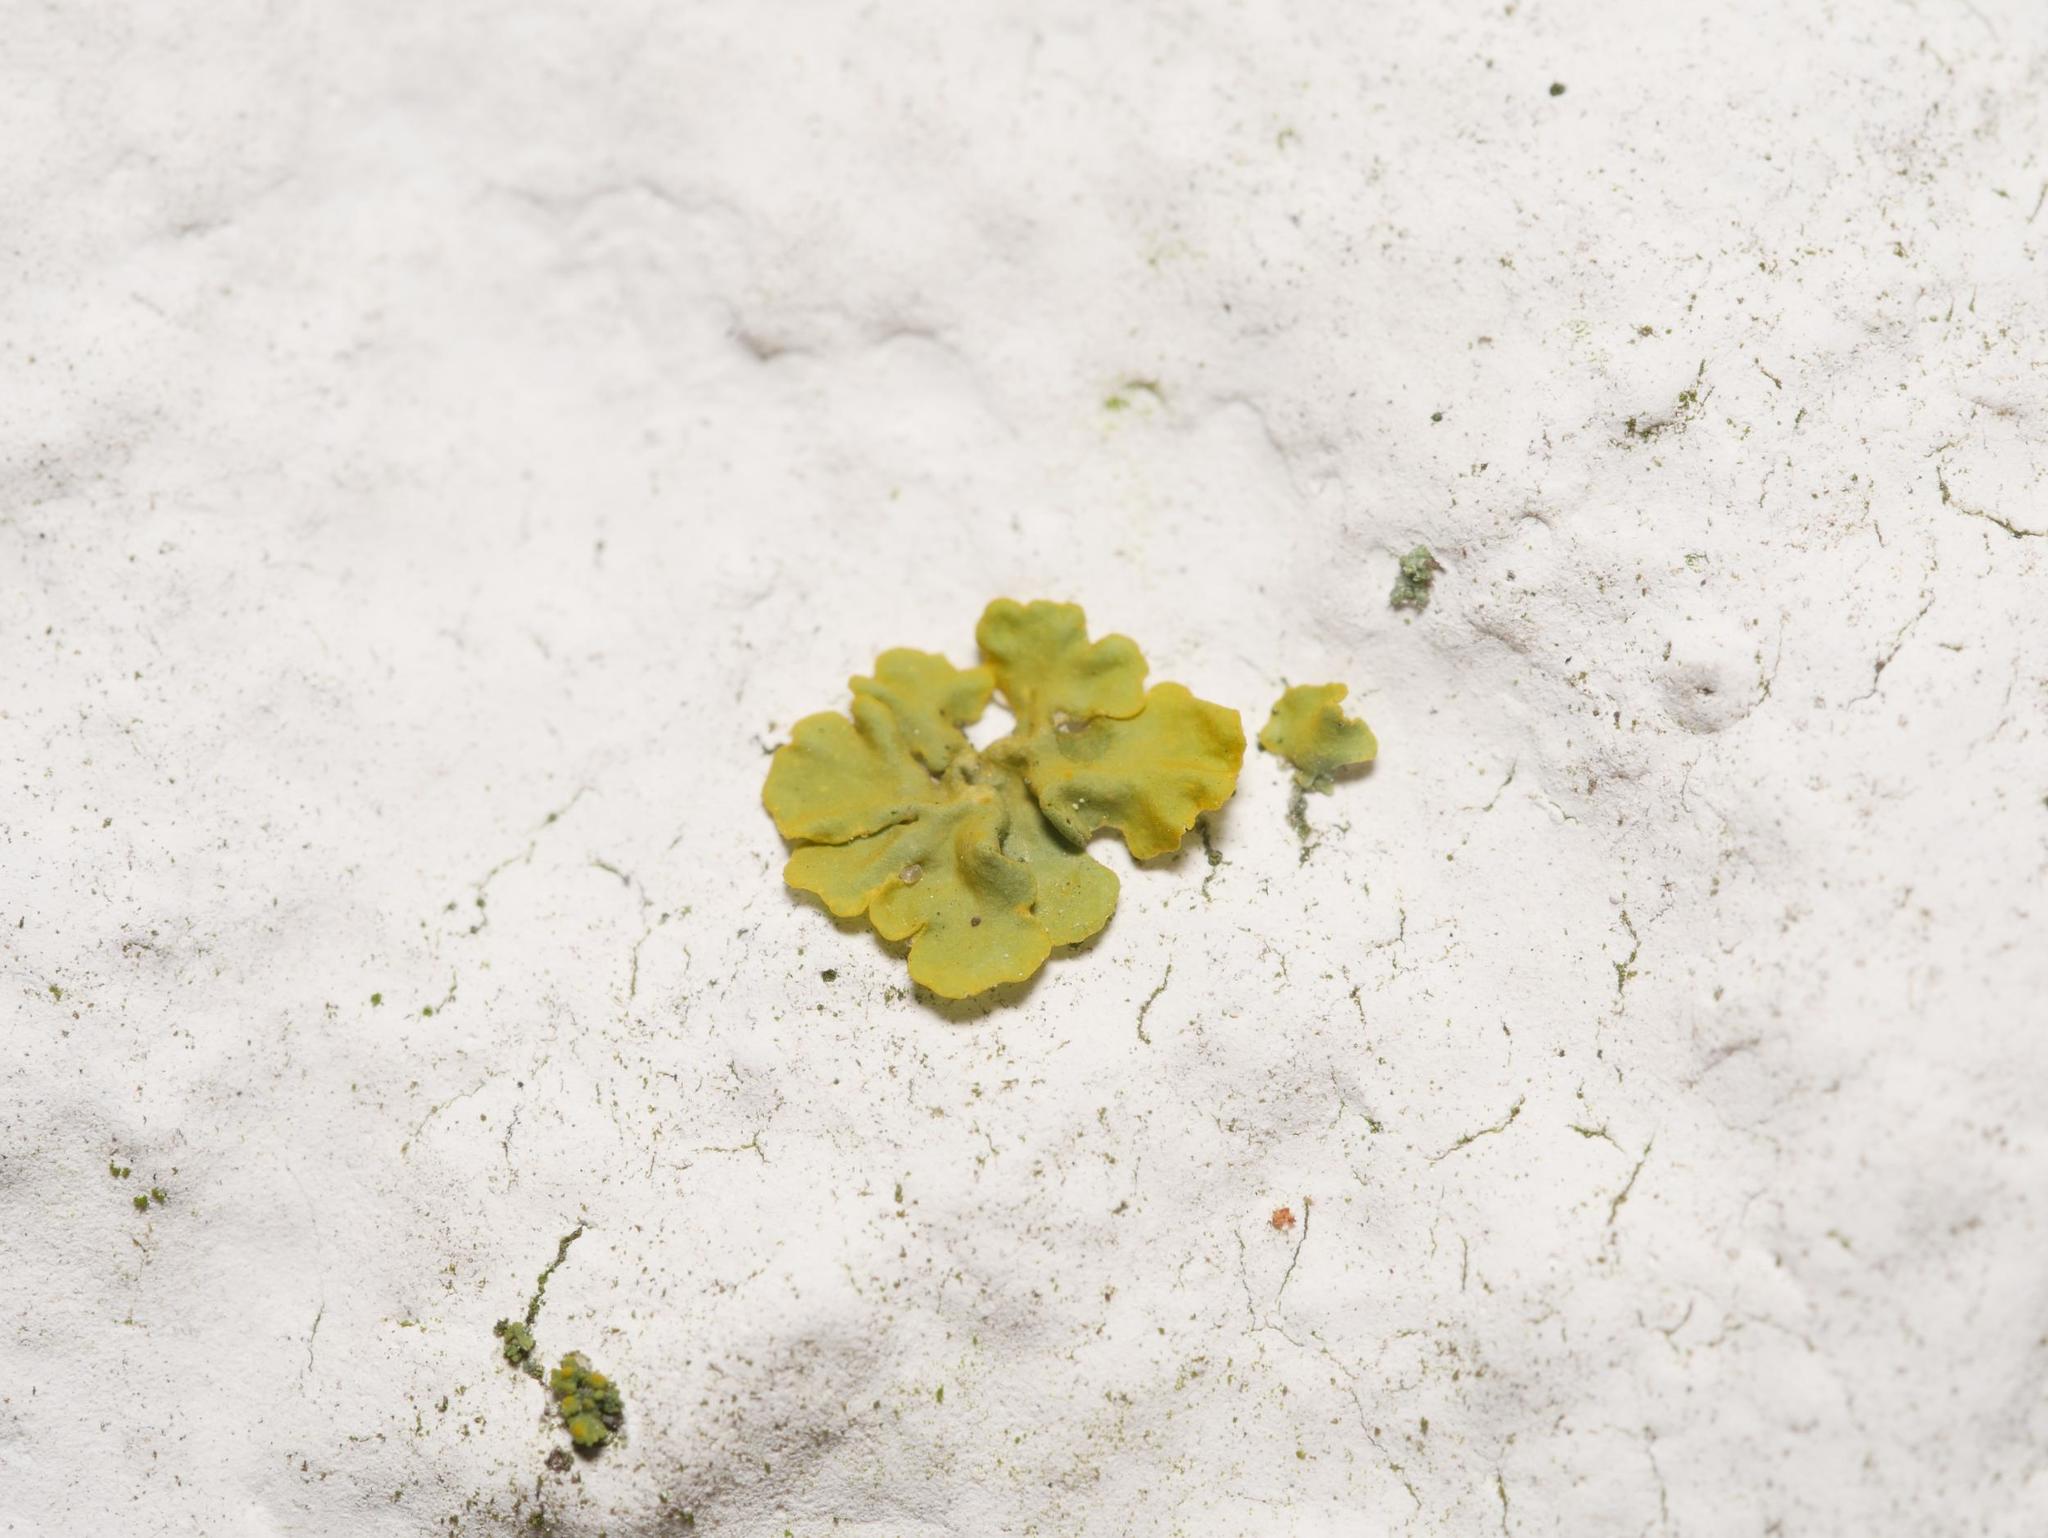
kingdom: Fungi
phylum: Ascomycota
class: Lecanoromycetes
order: Teloschistales
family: Teloschistaceae
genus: Xanthoria
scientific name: Xanthoria parietina
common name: Common orange lichen
